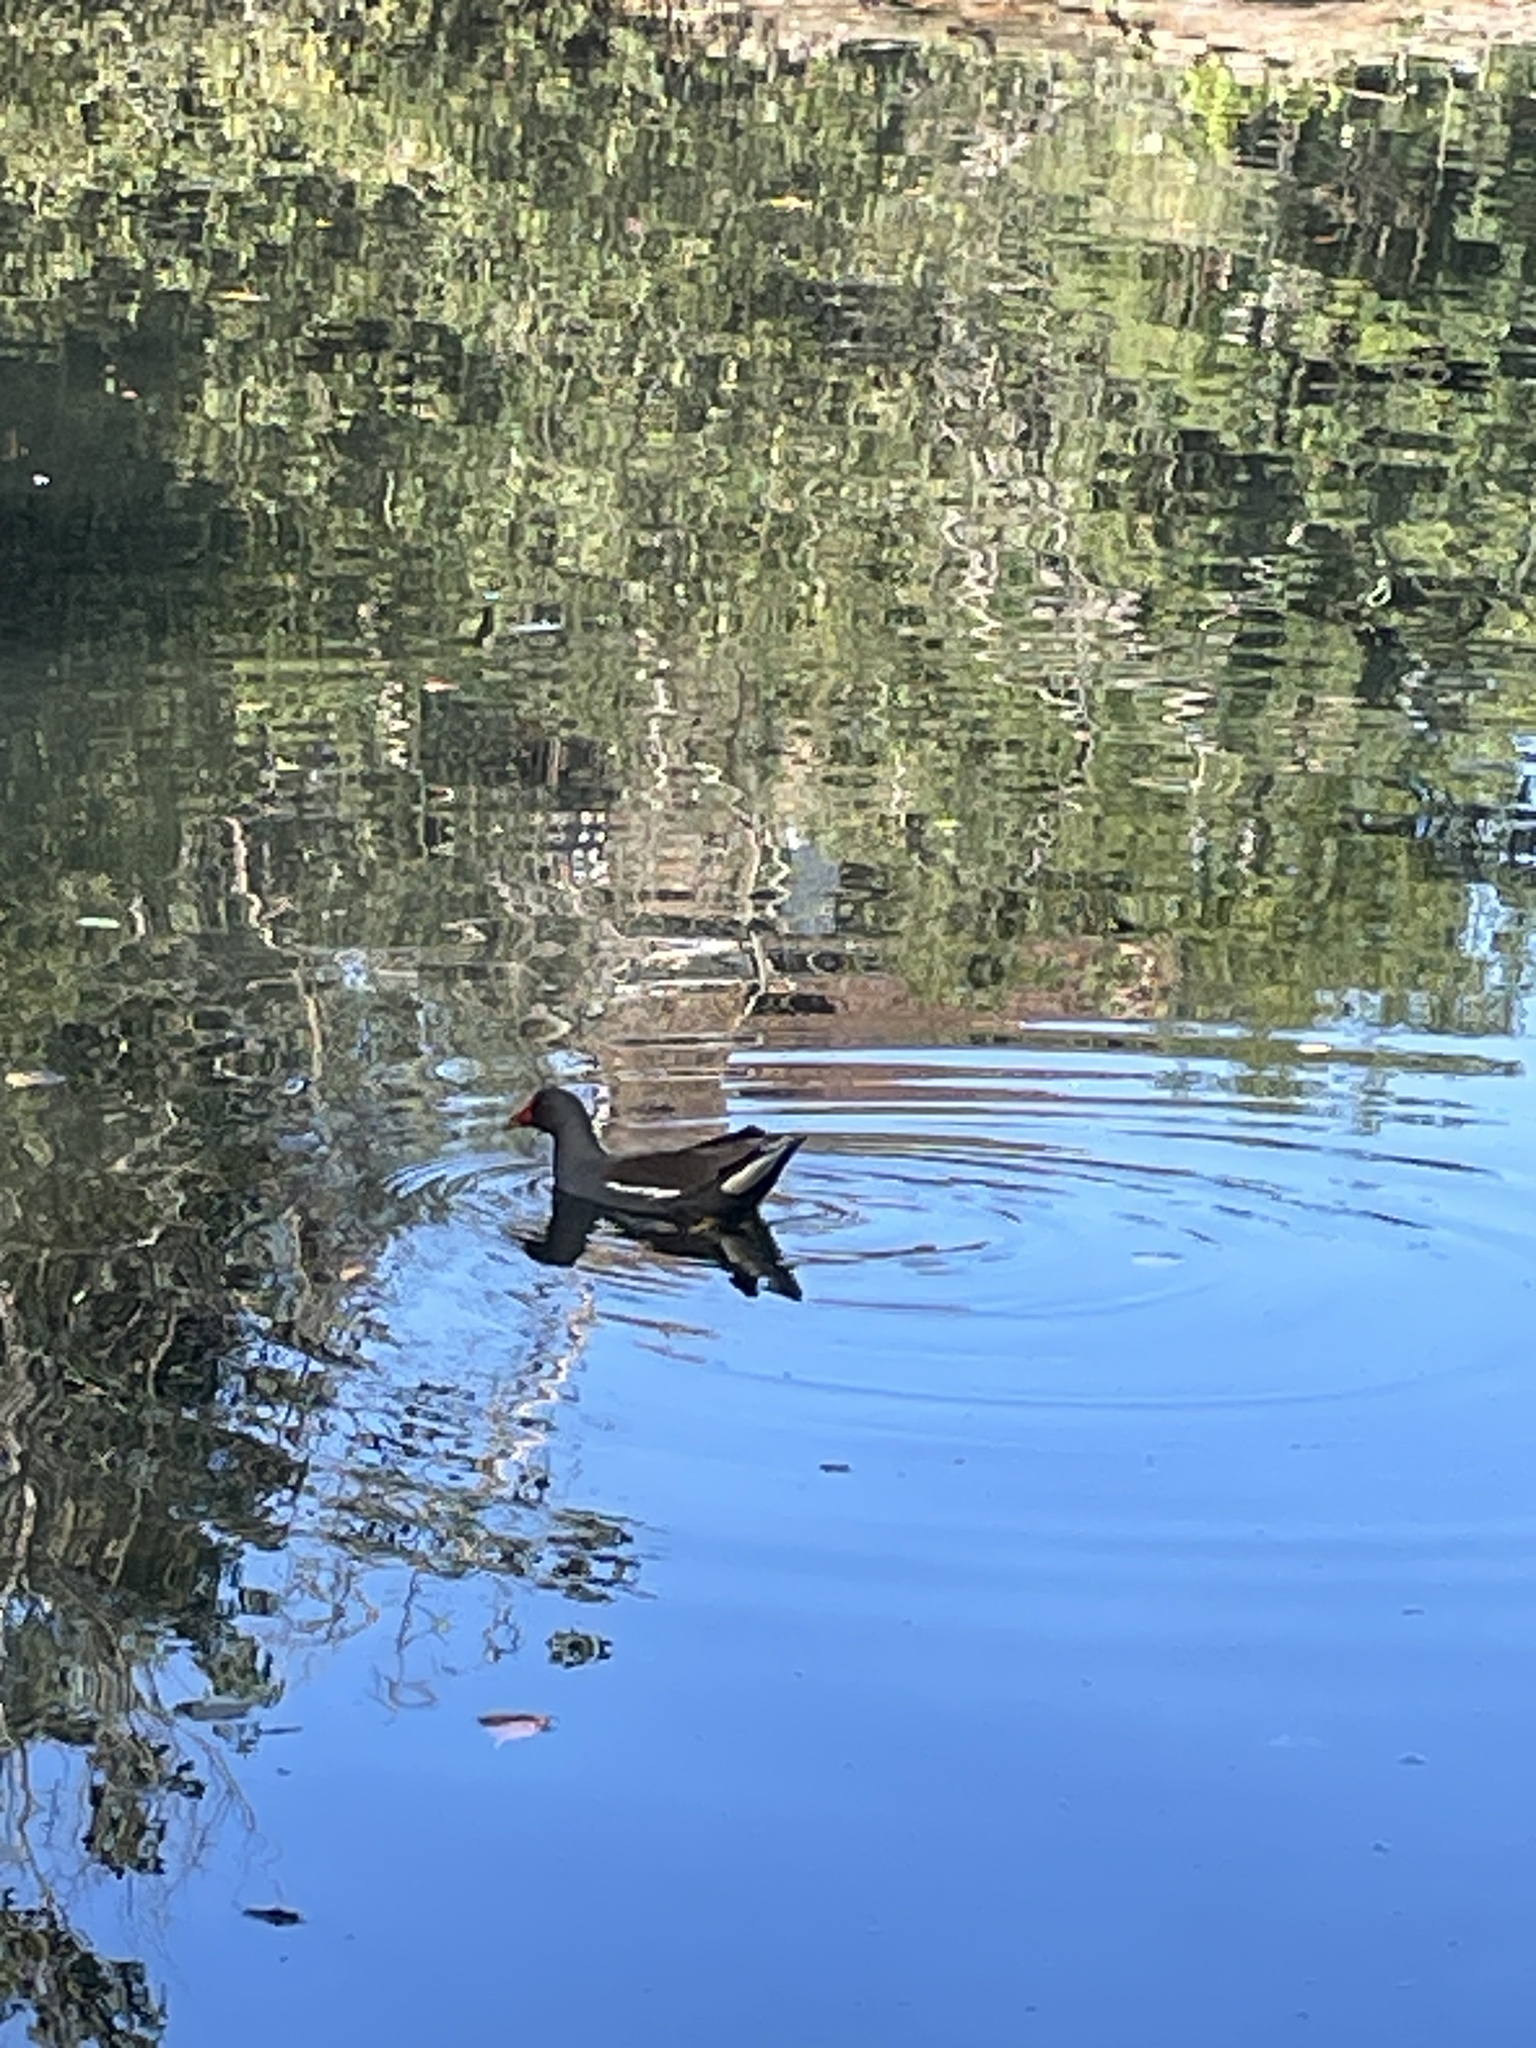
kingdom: Animalia
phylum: Chordata
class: Aves
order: Gruiformes
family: Rallidae
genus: Gallinula
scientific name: Gallinula chloropus
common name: Common moorhen
